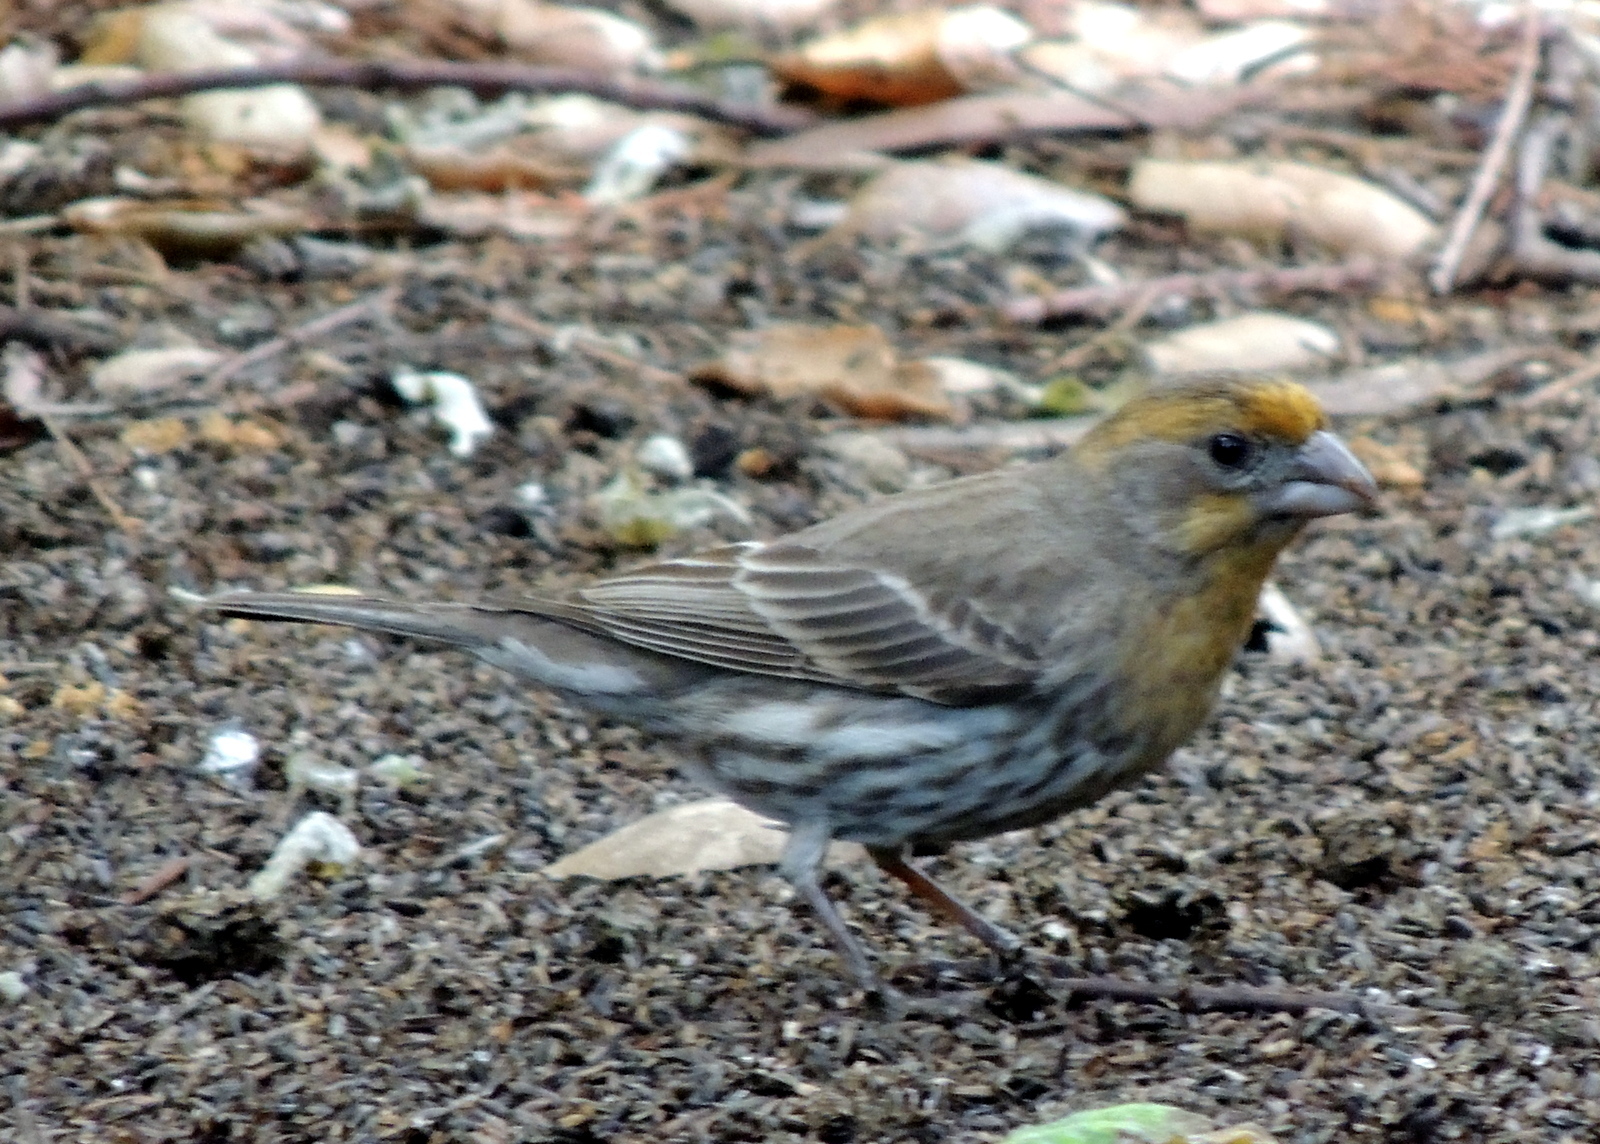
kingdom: Animalia
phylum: Chordata
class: Aves
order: Passeriformes
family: Fringillidae
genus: Haemorhous
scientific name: Haemorhous mexicanus
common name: House finch
